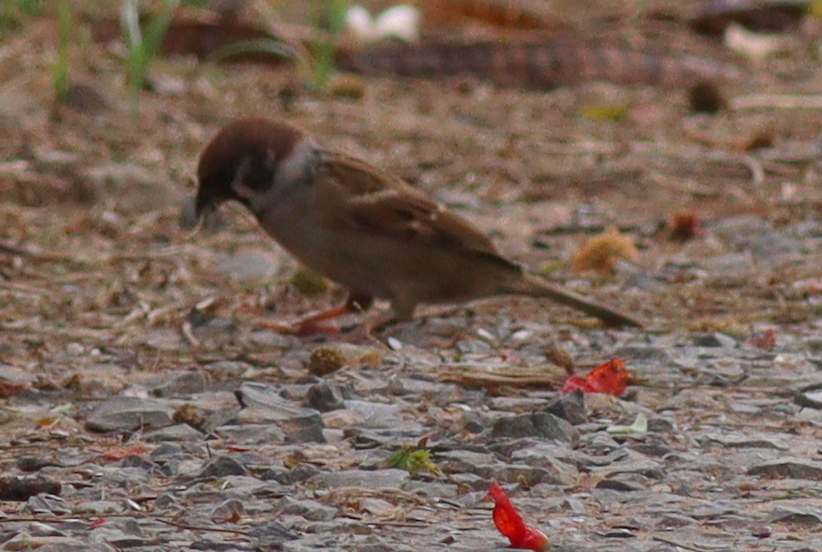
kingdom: Animalia
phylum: Chordata
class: Aves
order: Passeriformes
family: Passeridae
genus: Passer
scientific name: Passer montanus
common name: Eurasian tree sparrow
